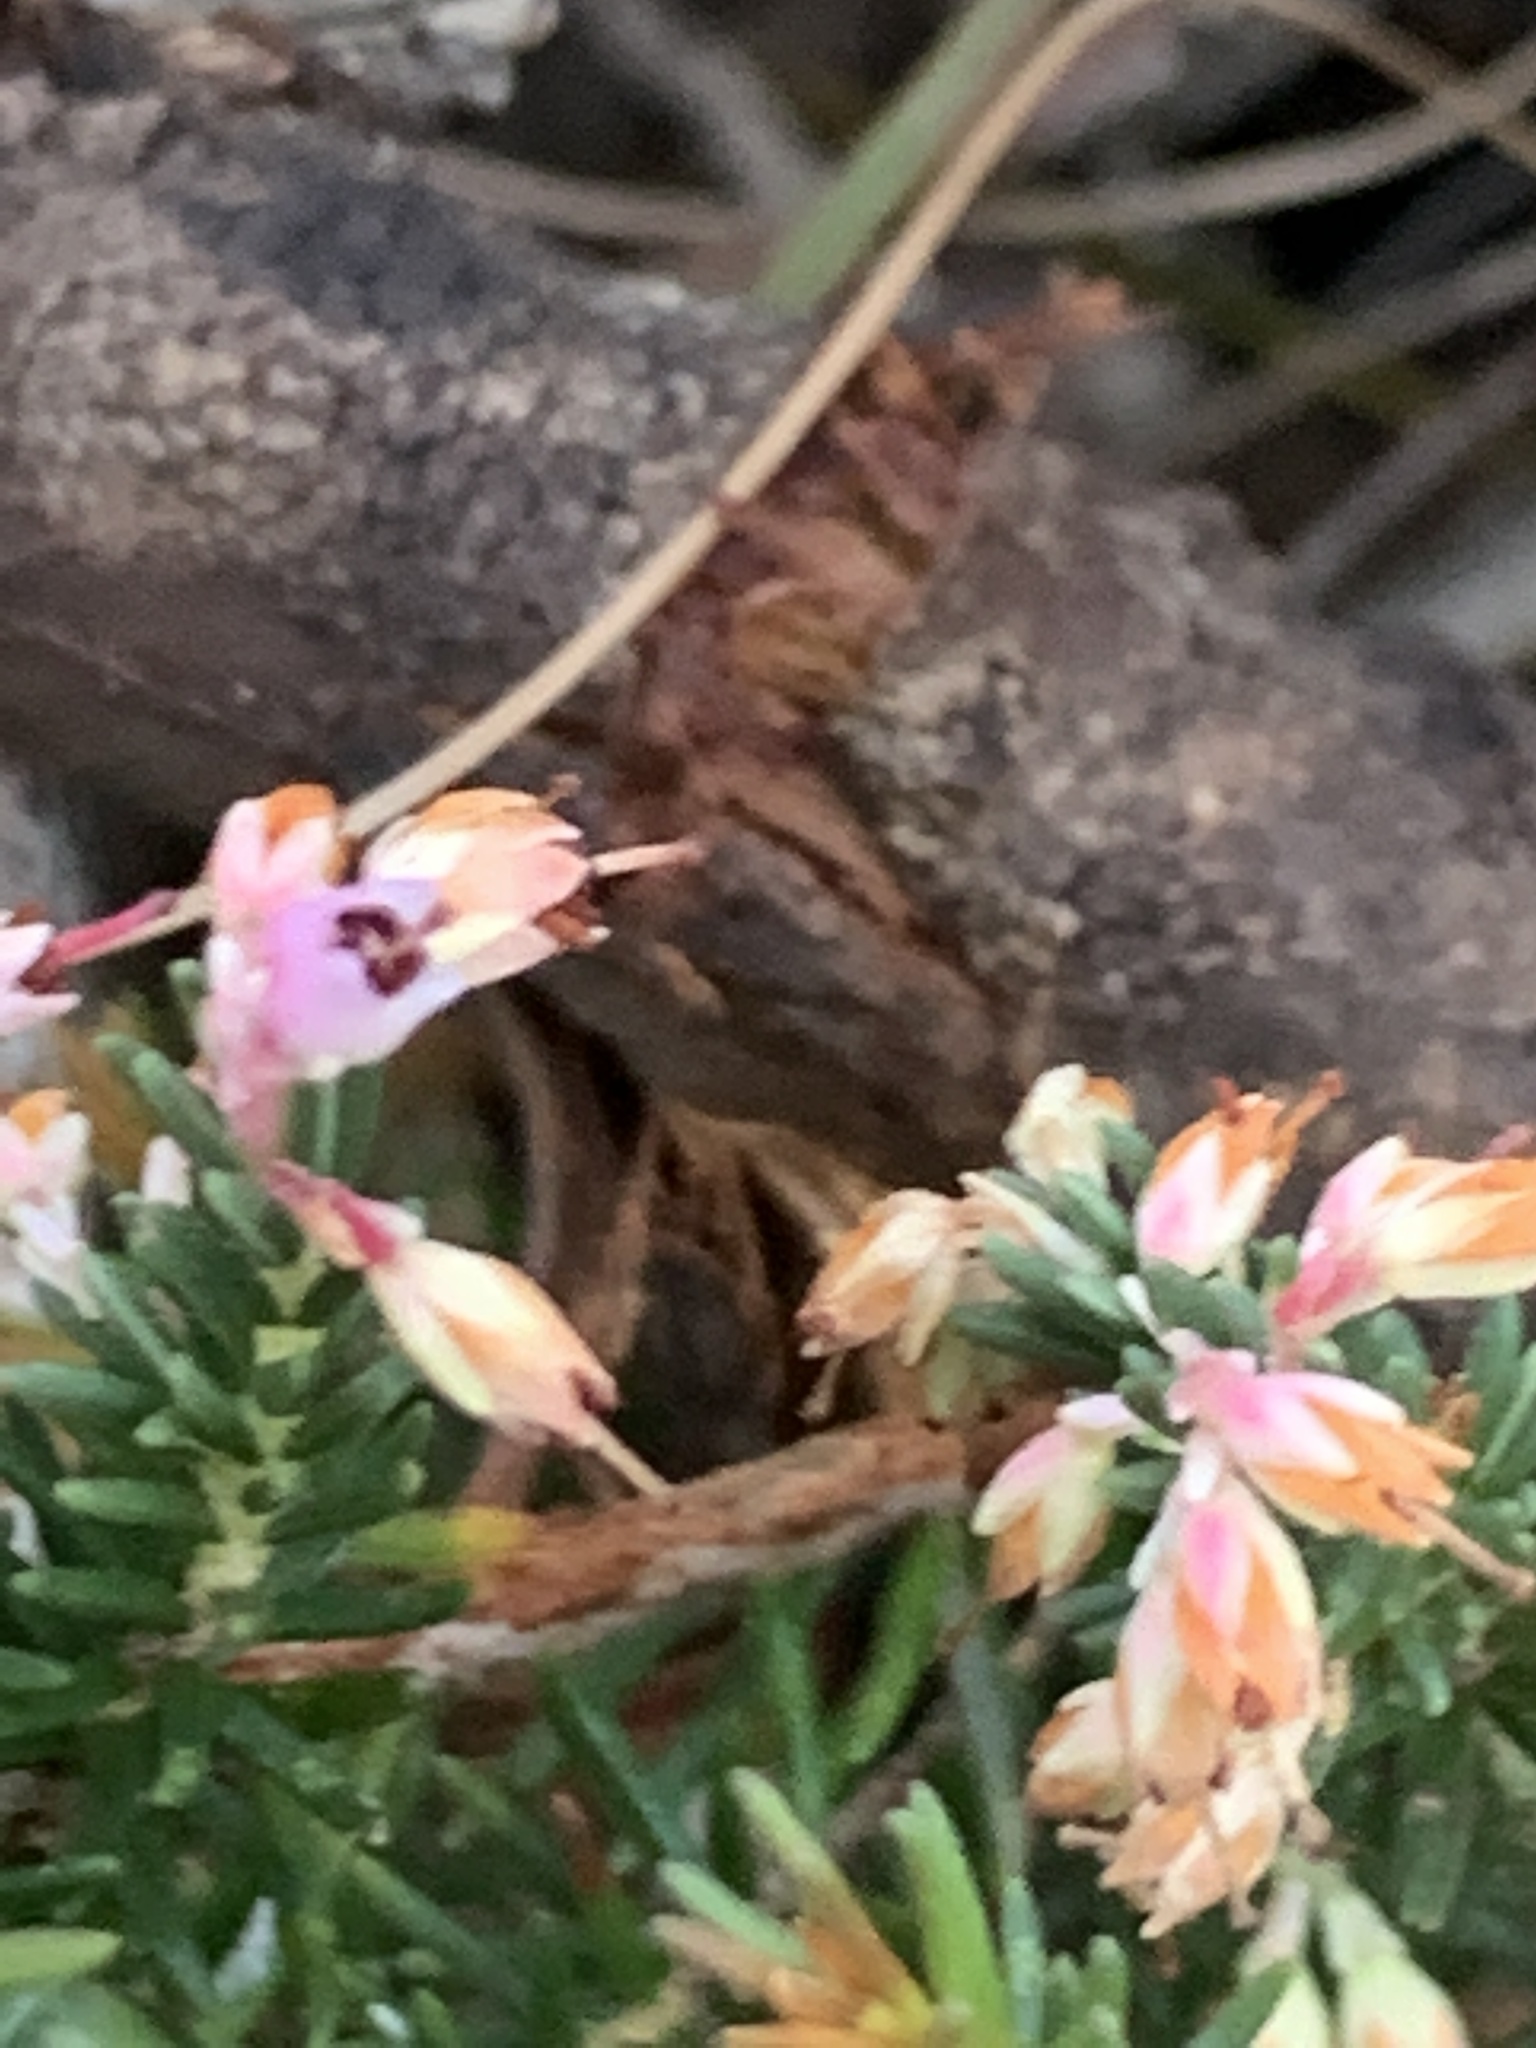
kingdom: Plantae
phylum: Tracheophyta
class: Magnoliopsida
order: Ericales
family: Ericaceae
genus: Erica
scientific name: Erica paniculata
